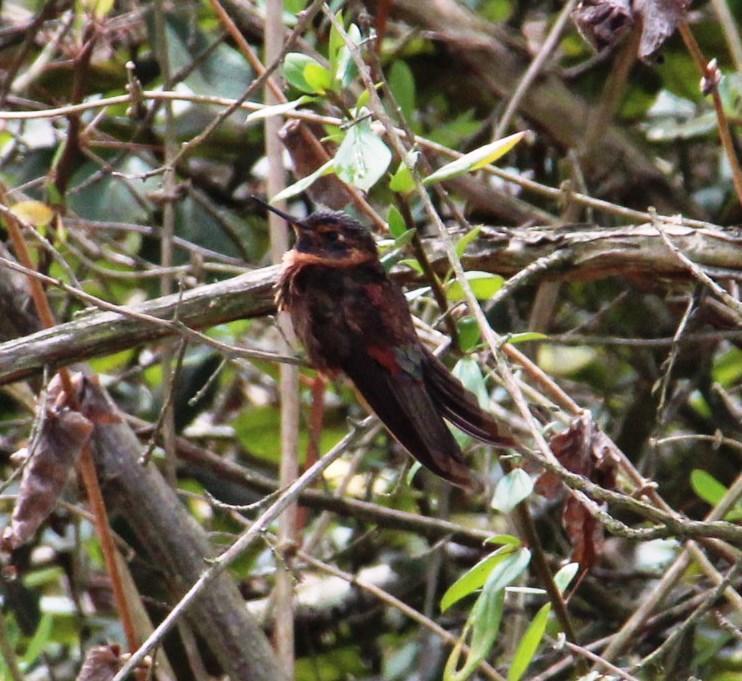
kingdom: Animalia
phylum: Chordata
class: Aves
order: Apodiformes
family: Trochilidae
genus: Aglaeactis
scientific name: Aglaeactis castelnaudii
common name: White-tufted sunbeam
